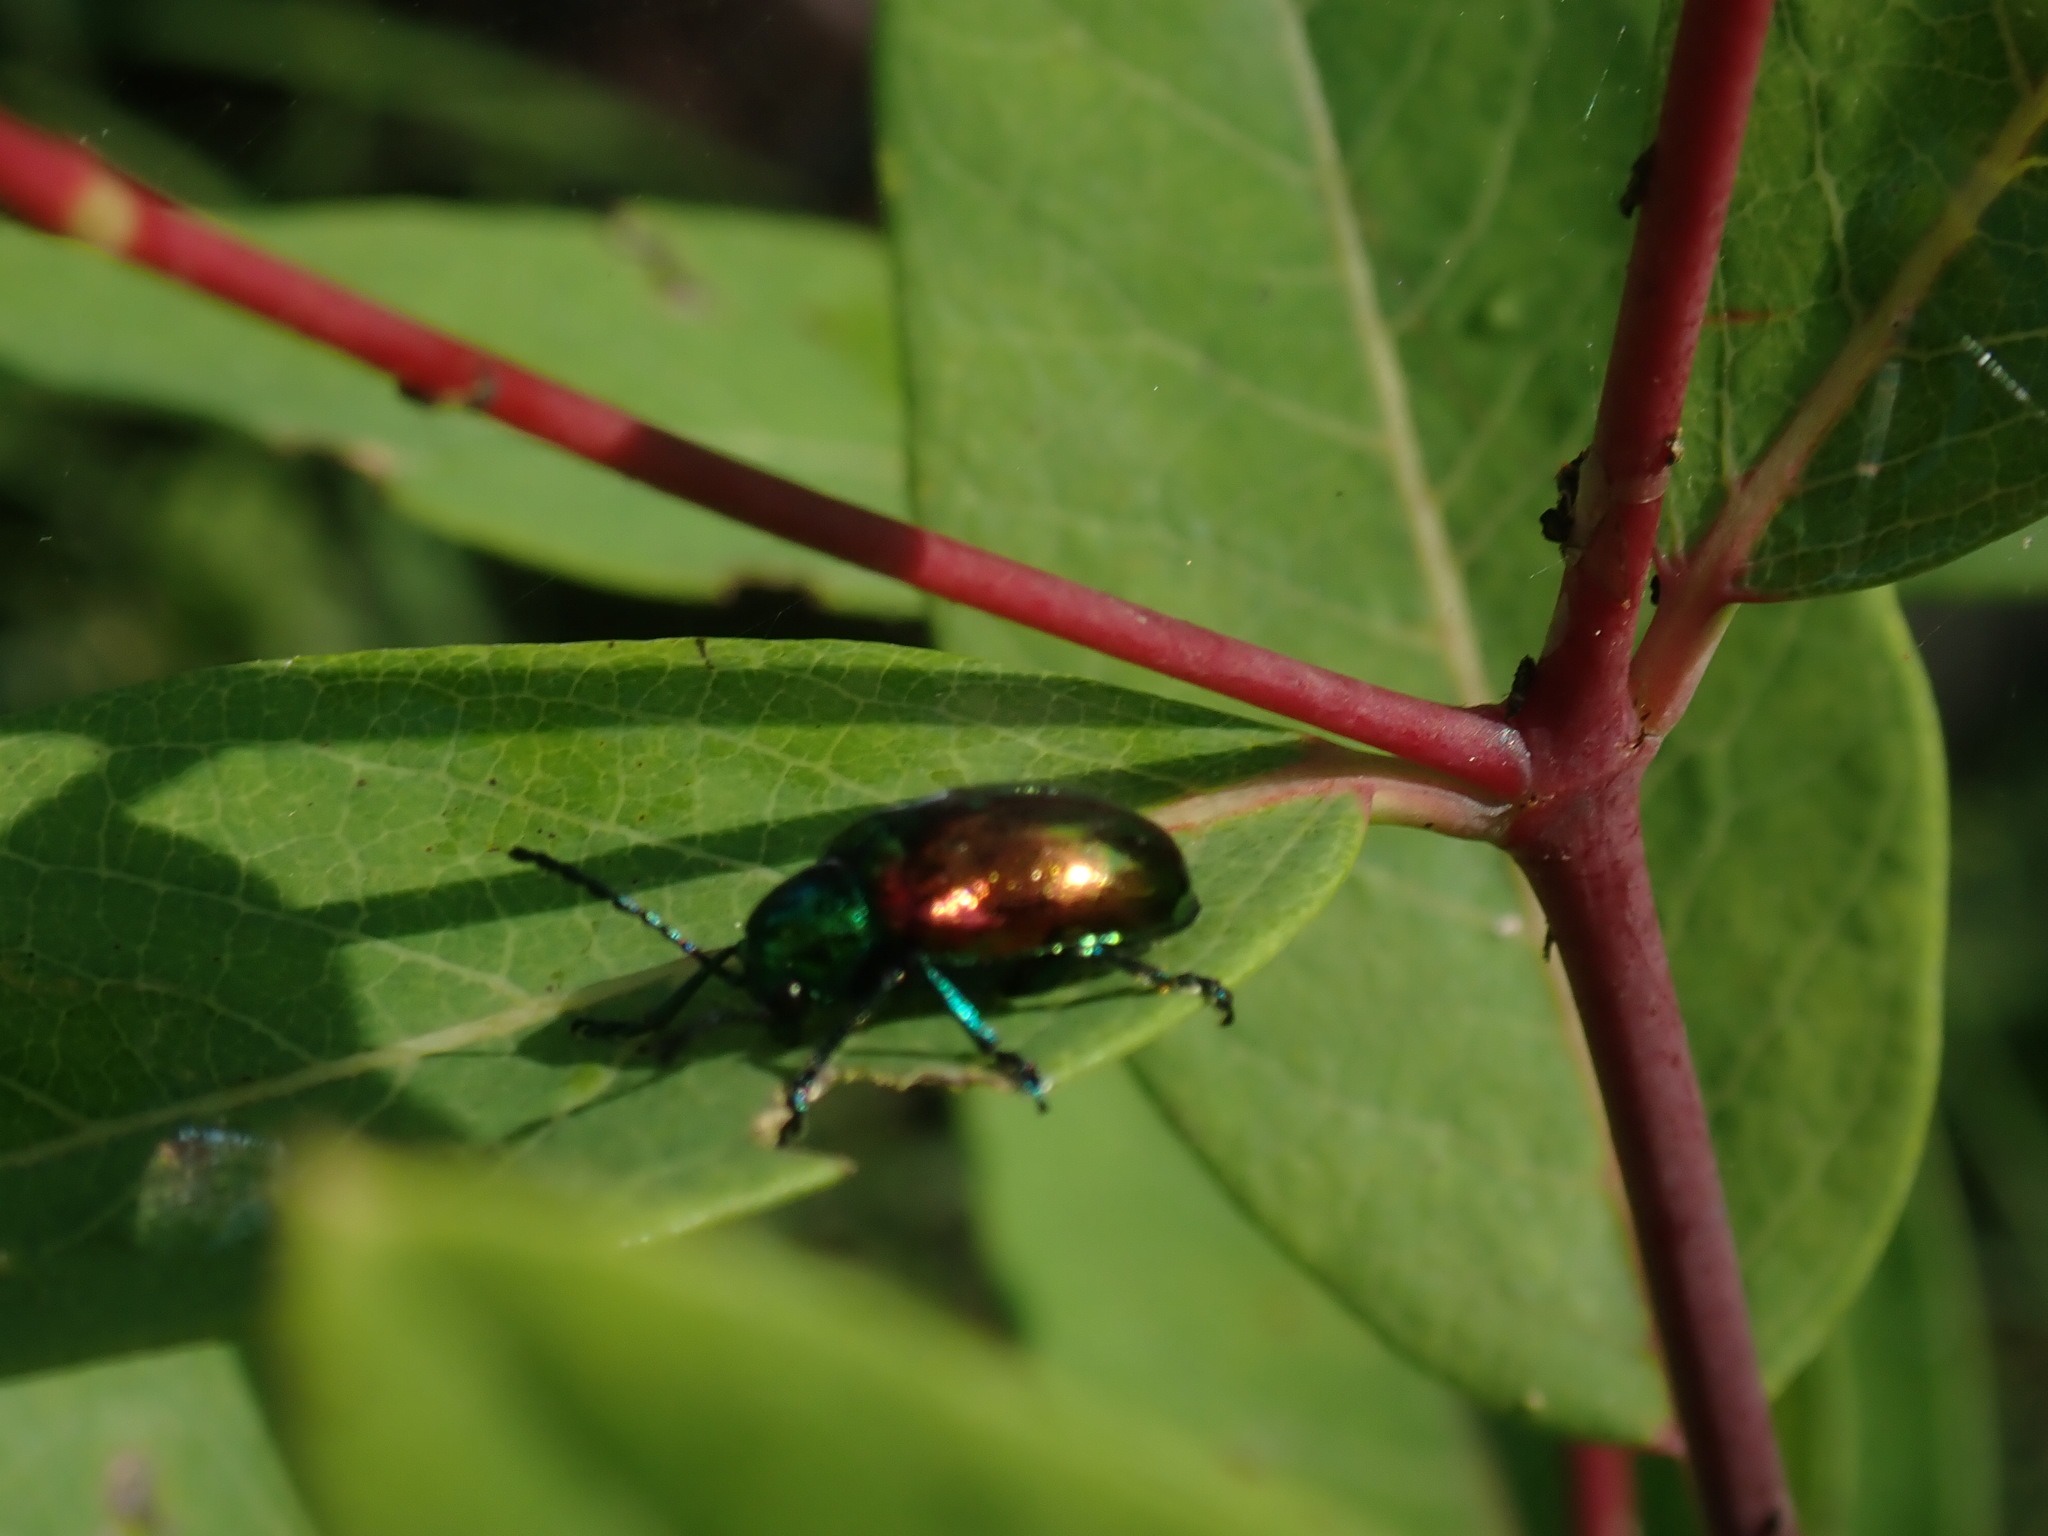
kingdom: Animalia
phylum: Arthropoda
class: Insecta
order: Coleoptera
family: Chrysomelidae
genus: Chrysochus
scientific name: Chrysochus auratus
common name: Dogbane leaf beetle
